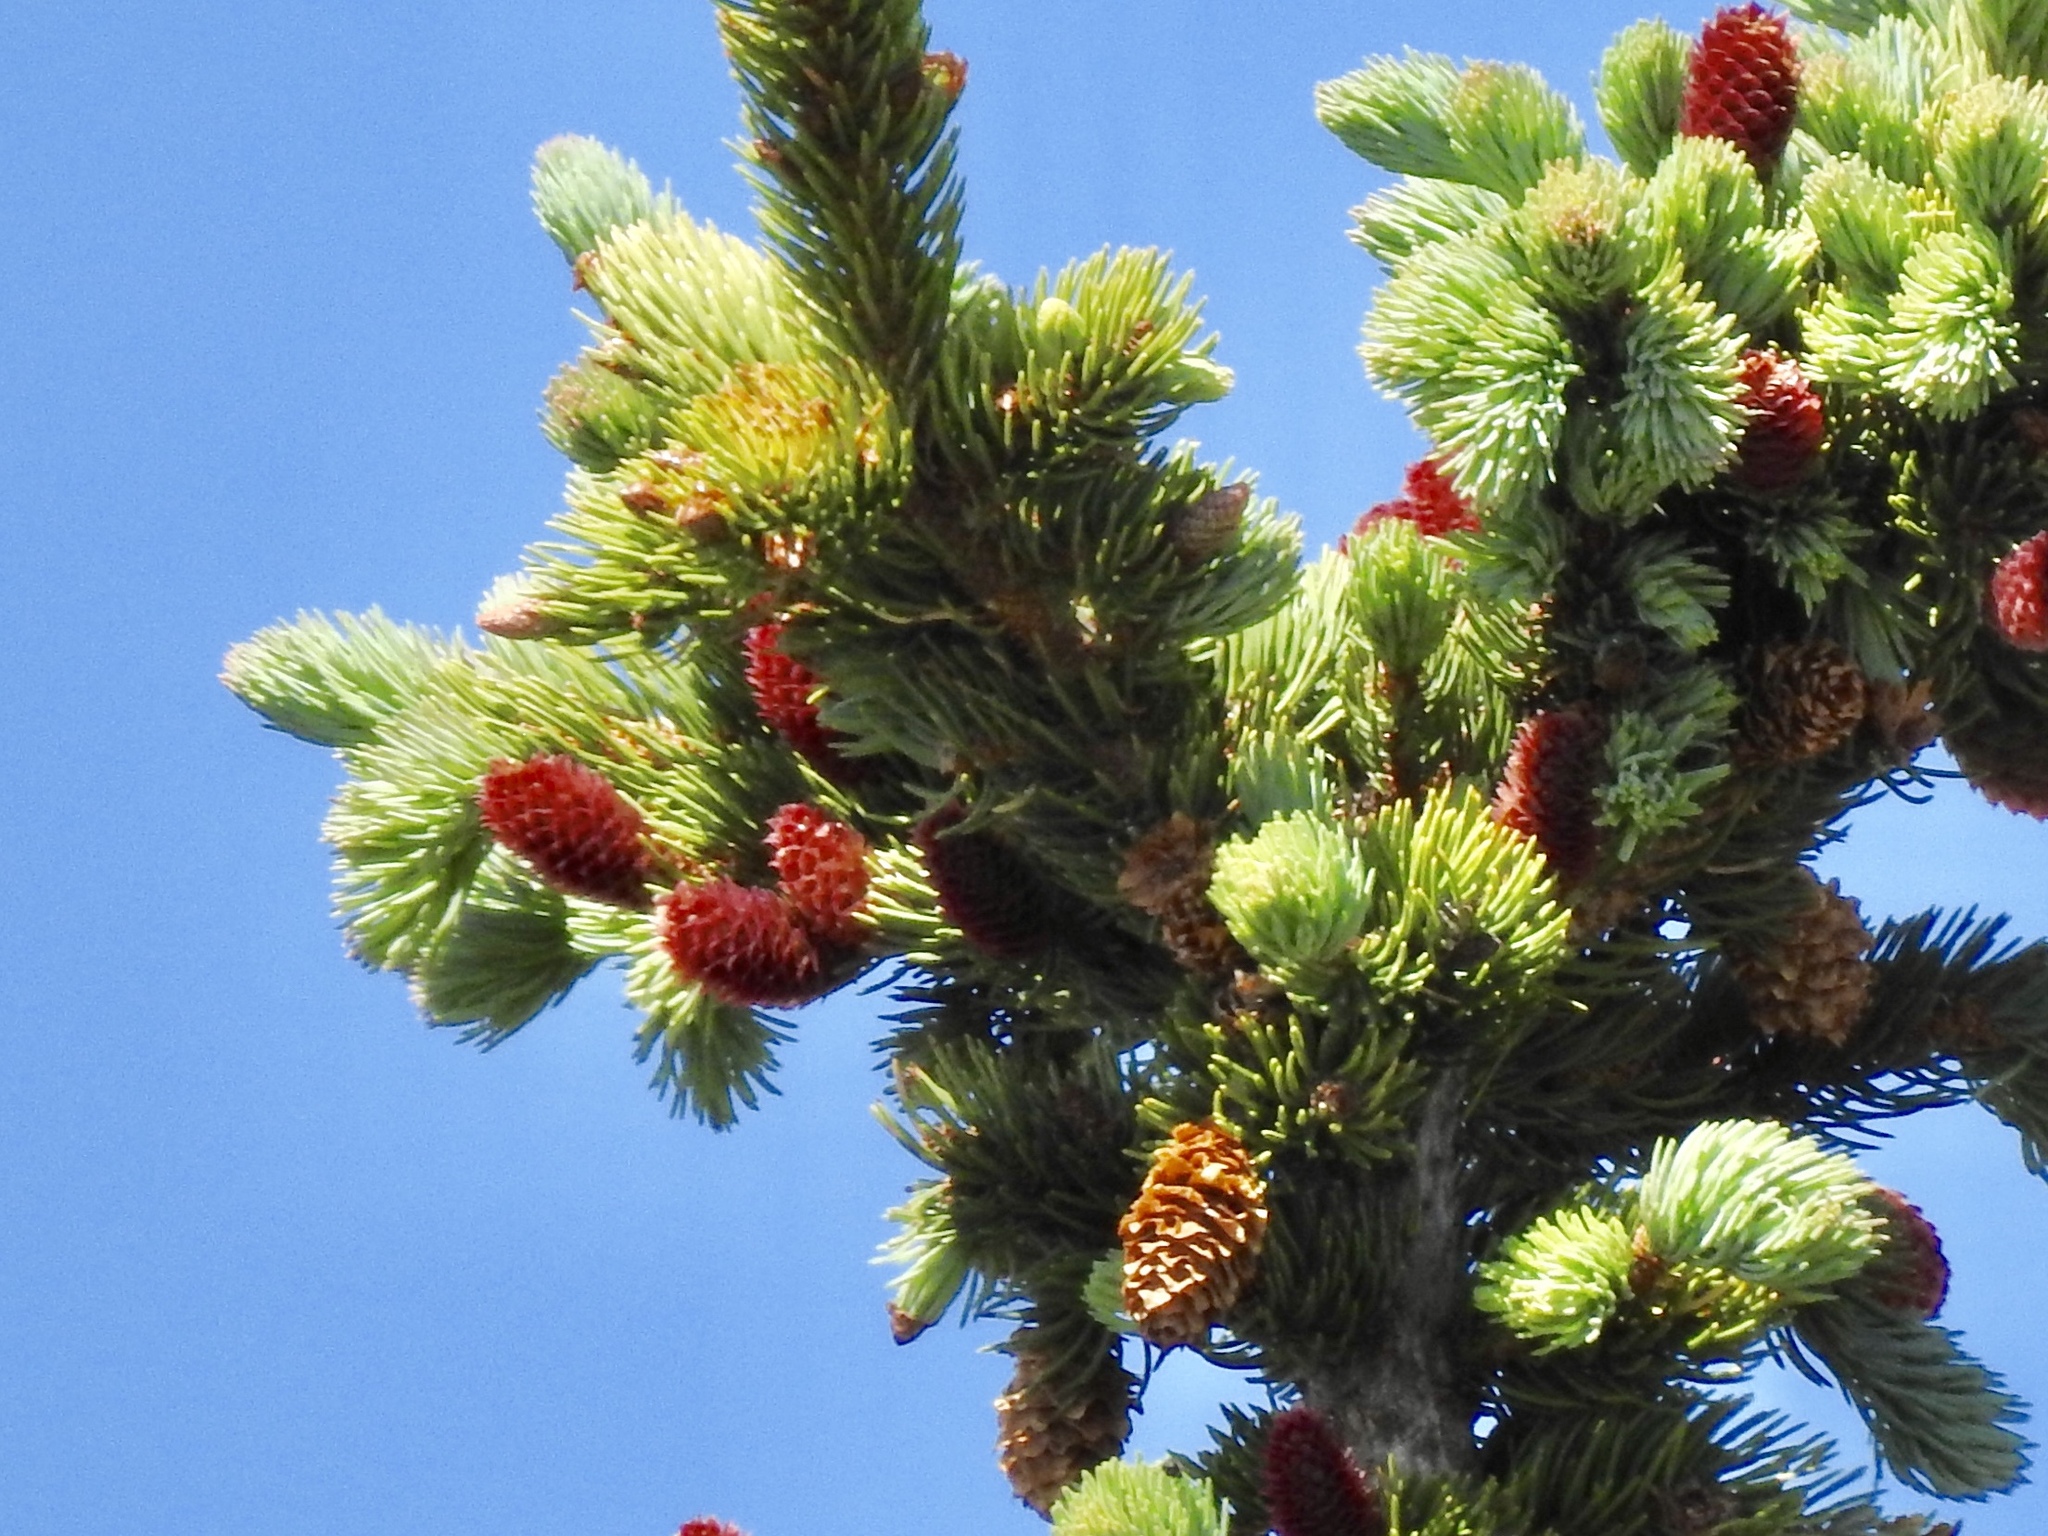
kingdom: Plantae
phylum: Tracheophyta
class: Pinopsida
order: Pinales
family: Pinaceae
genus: Picea
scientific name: Picea engelmannii
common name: Engelmann spruce
